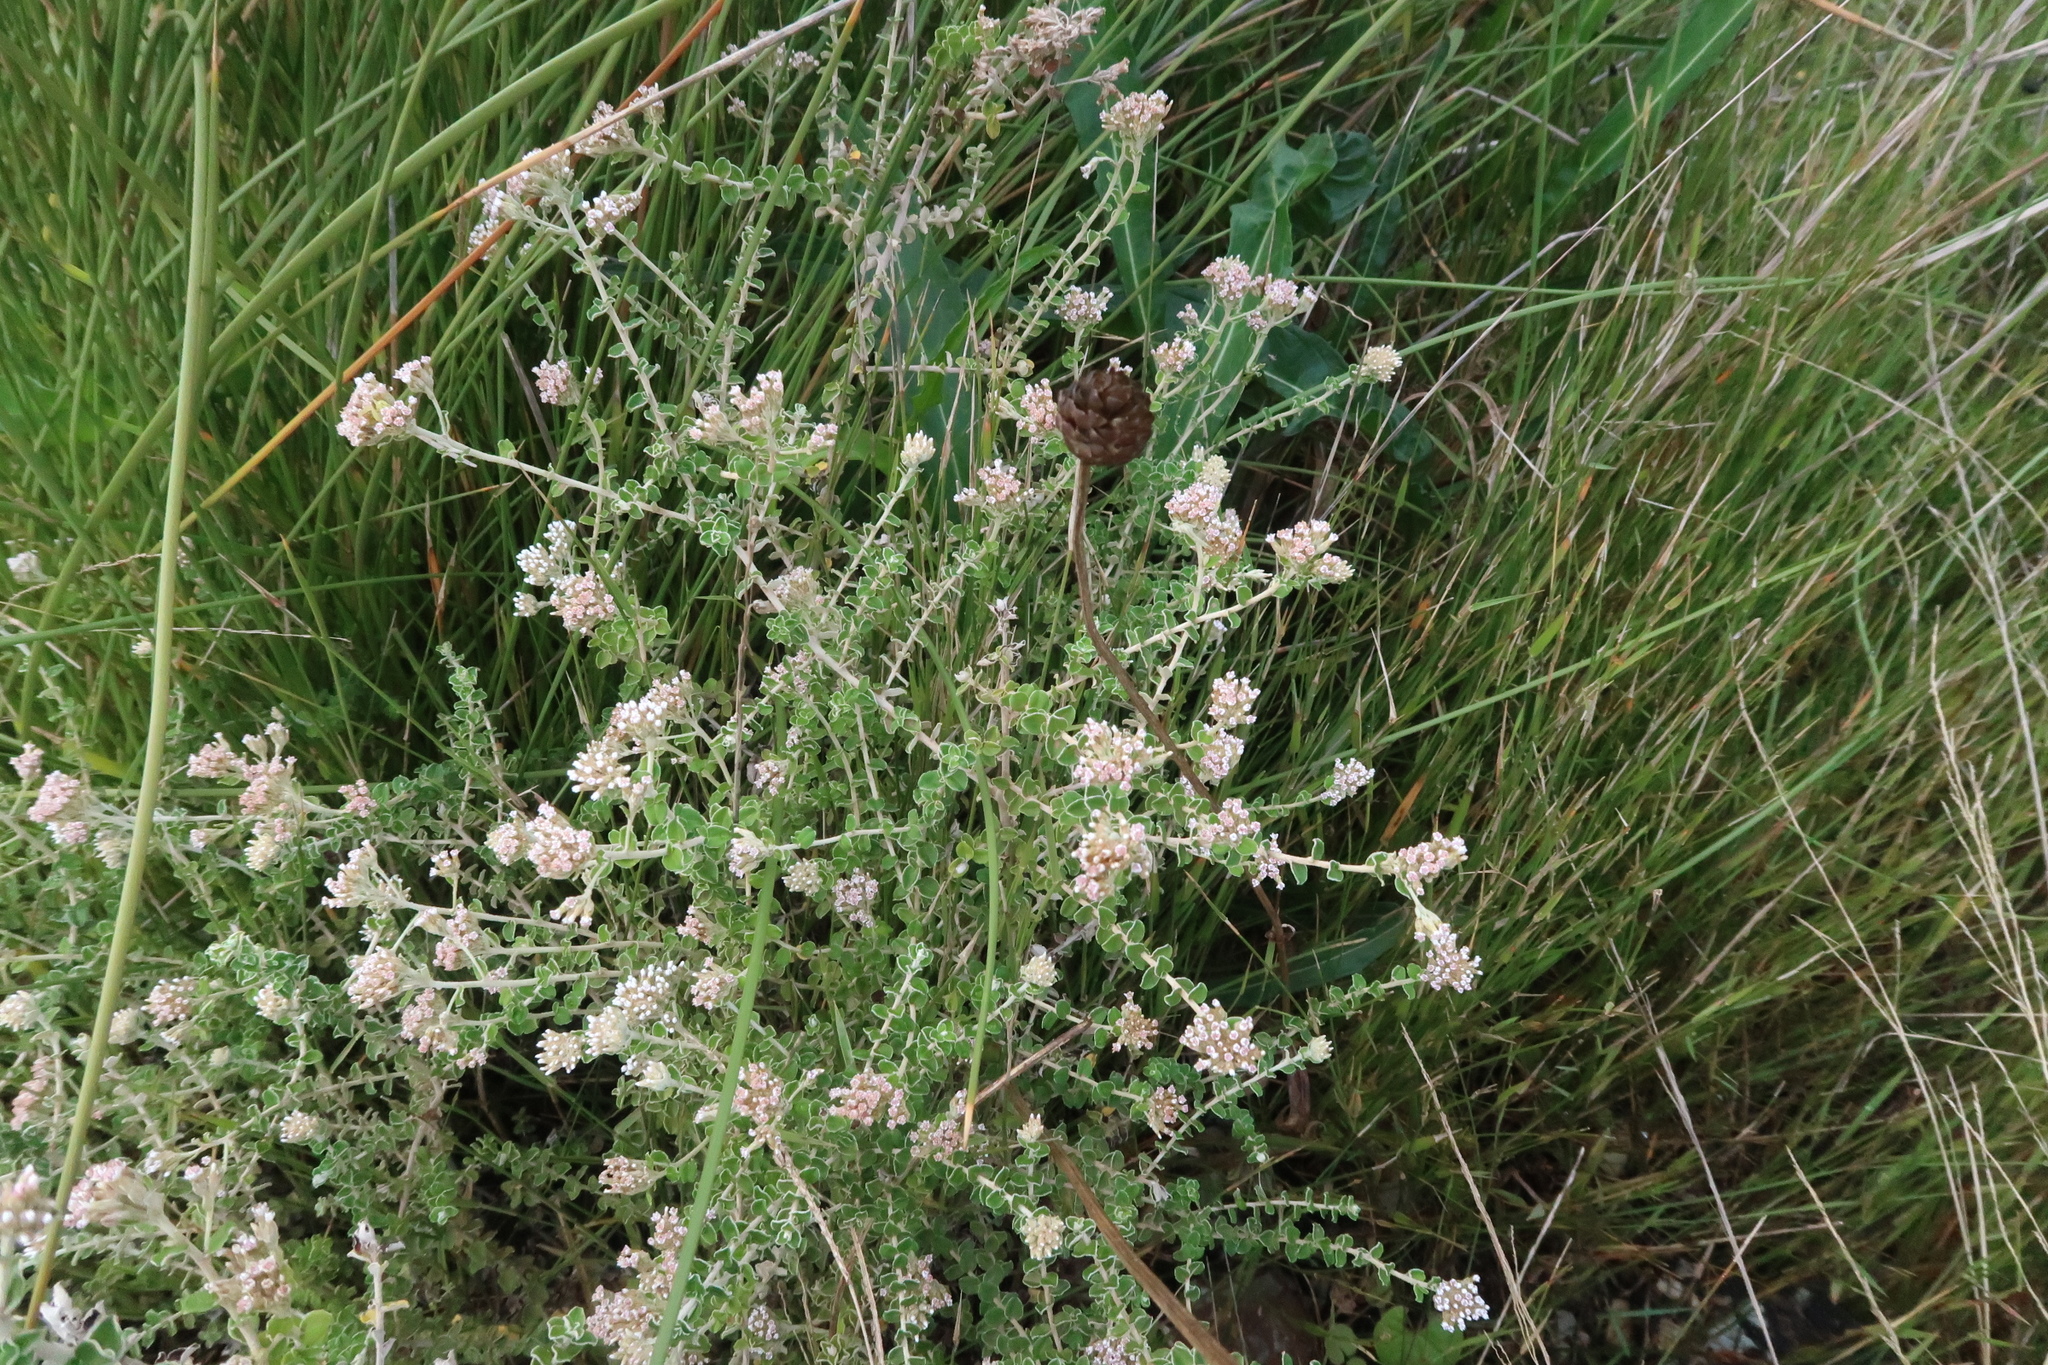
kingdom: Plantae
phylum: Tracheophyta
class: Magnoliopsida
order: Asterales
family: Asteraceae
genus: Plecostachys
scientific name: Plecostachys serpyllifolia
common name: Petite licorice
